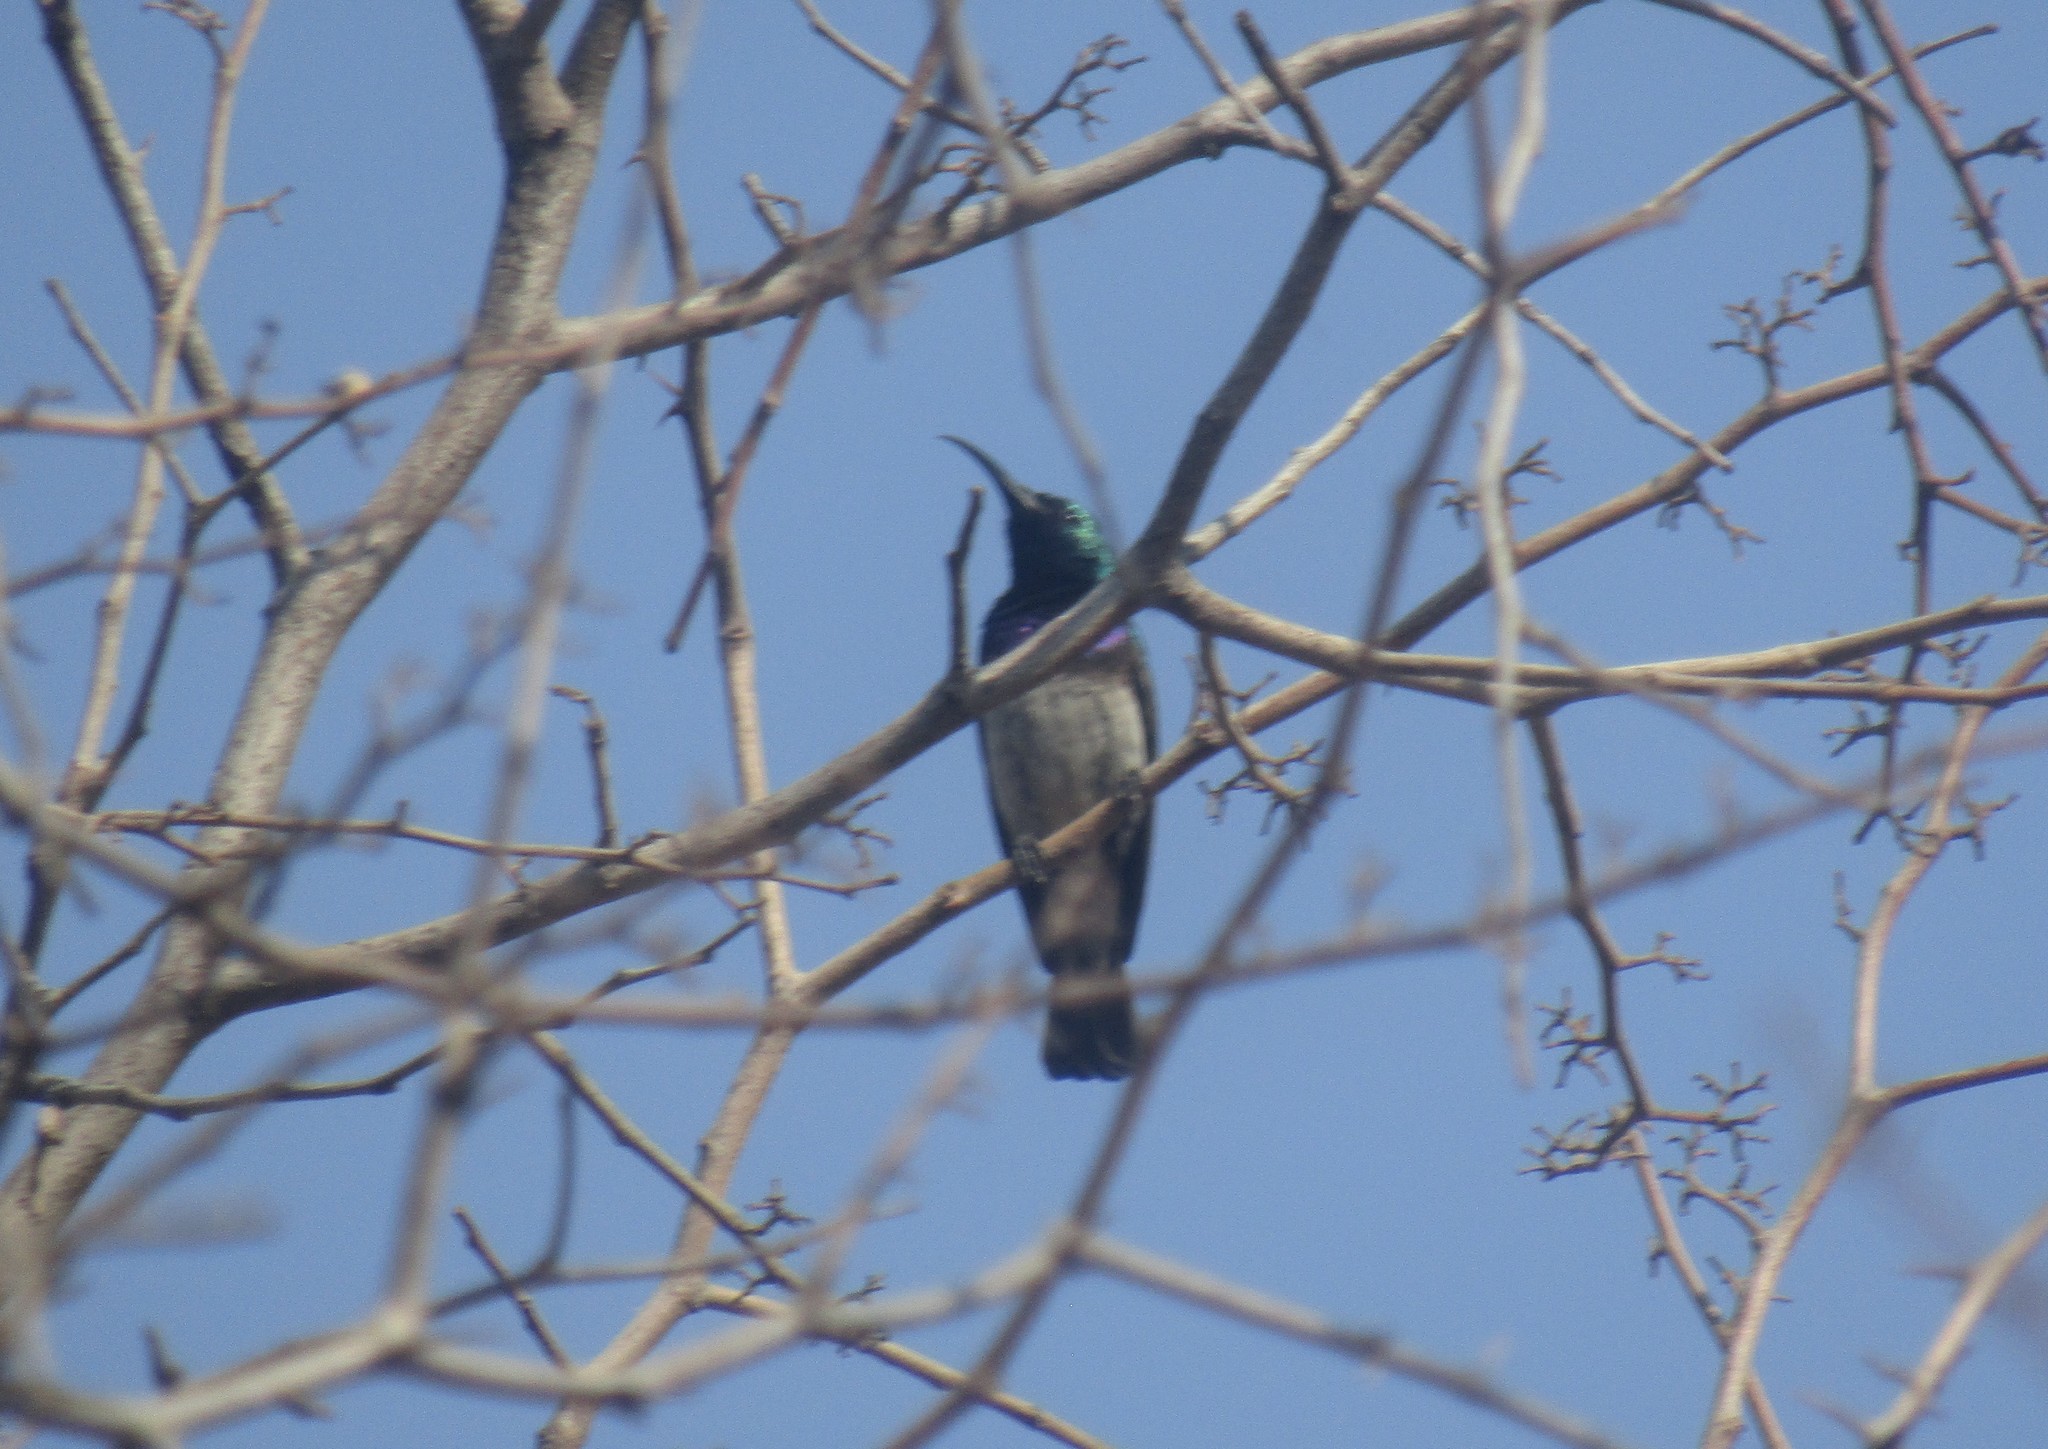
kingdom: Animalia
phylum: Chordata
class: Aves
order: Passeriformes
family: Nectariniidae
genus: Cinnyris
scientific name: Cinnyris talatala
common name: White-bellied sunbird
